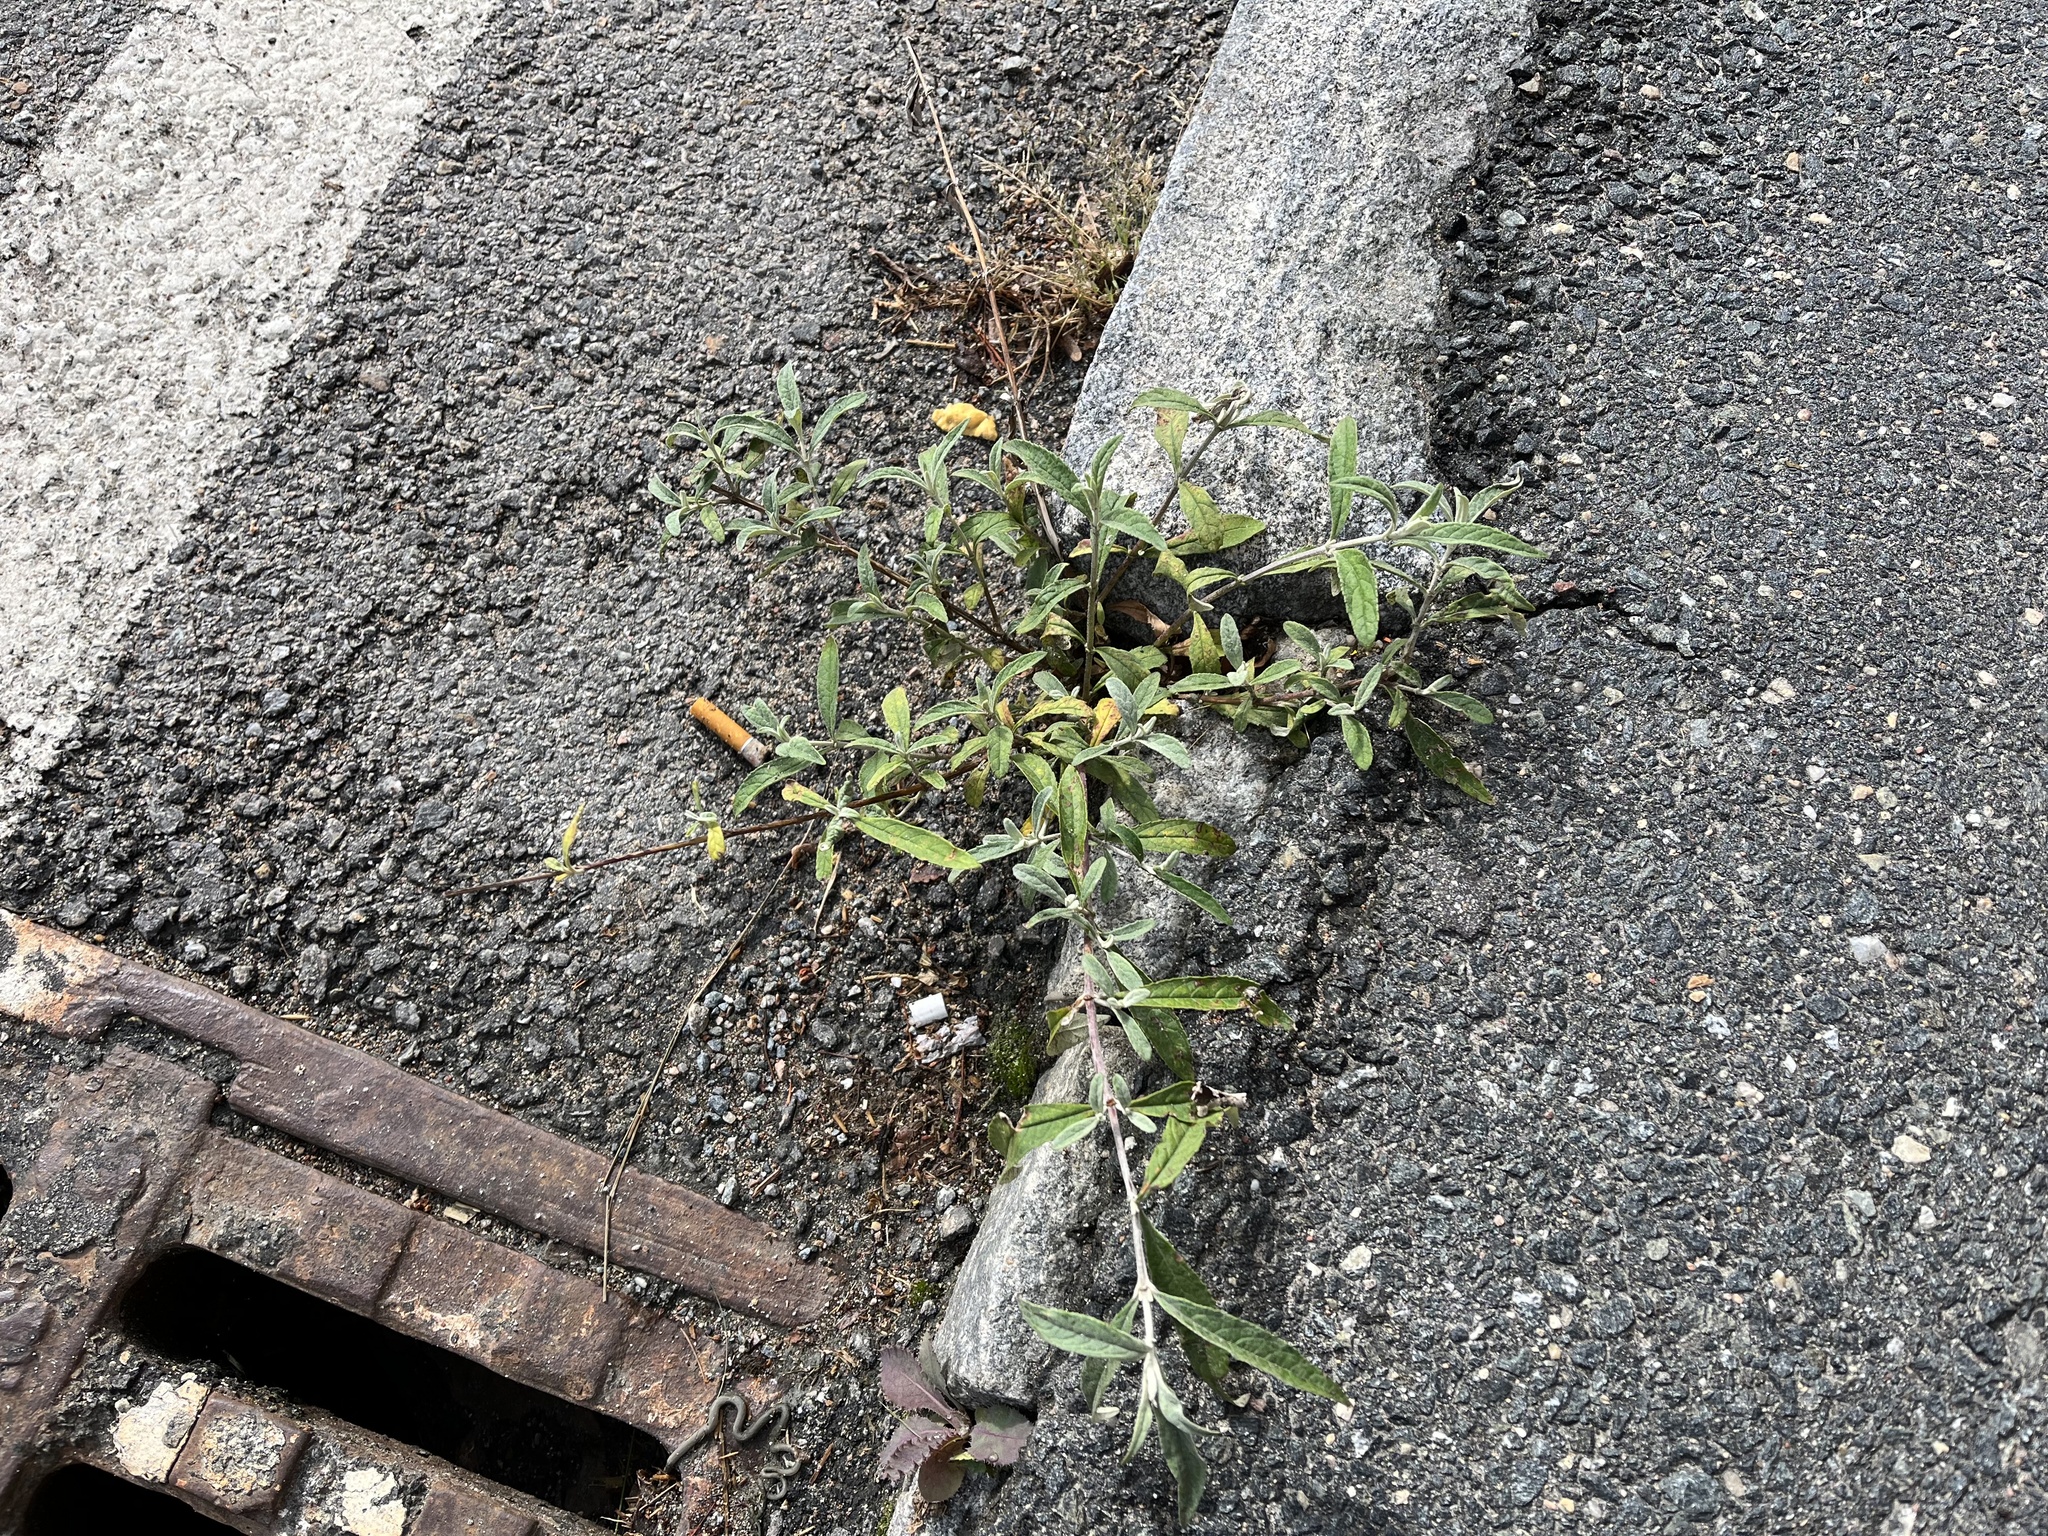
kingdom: Plantae
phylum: Tracheophyta
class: Magnoliopsida
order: Lamiales
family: Scrophulariaceae
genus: Buddleja
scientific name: Buddleja davidii
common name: Butterfly-bush
